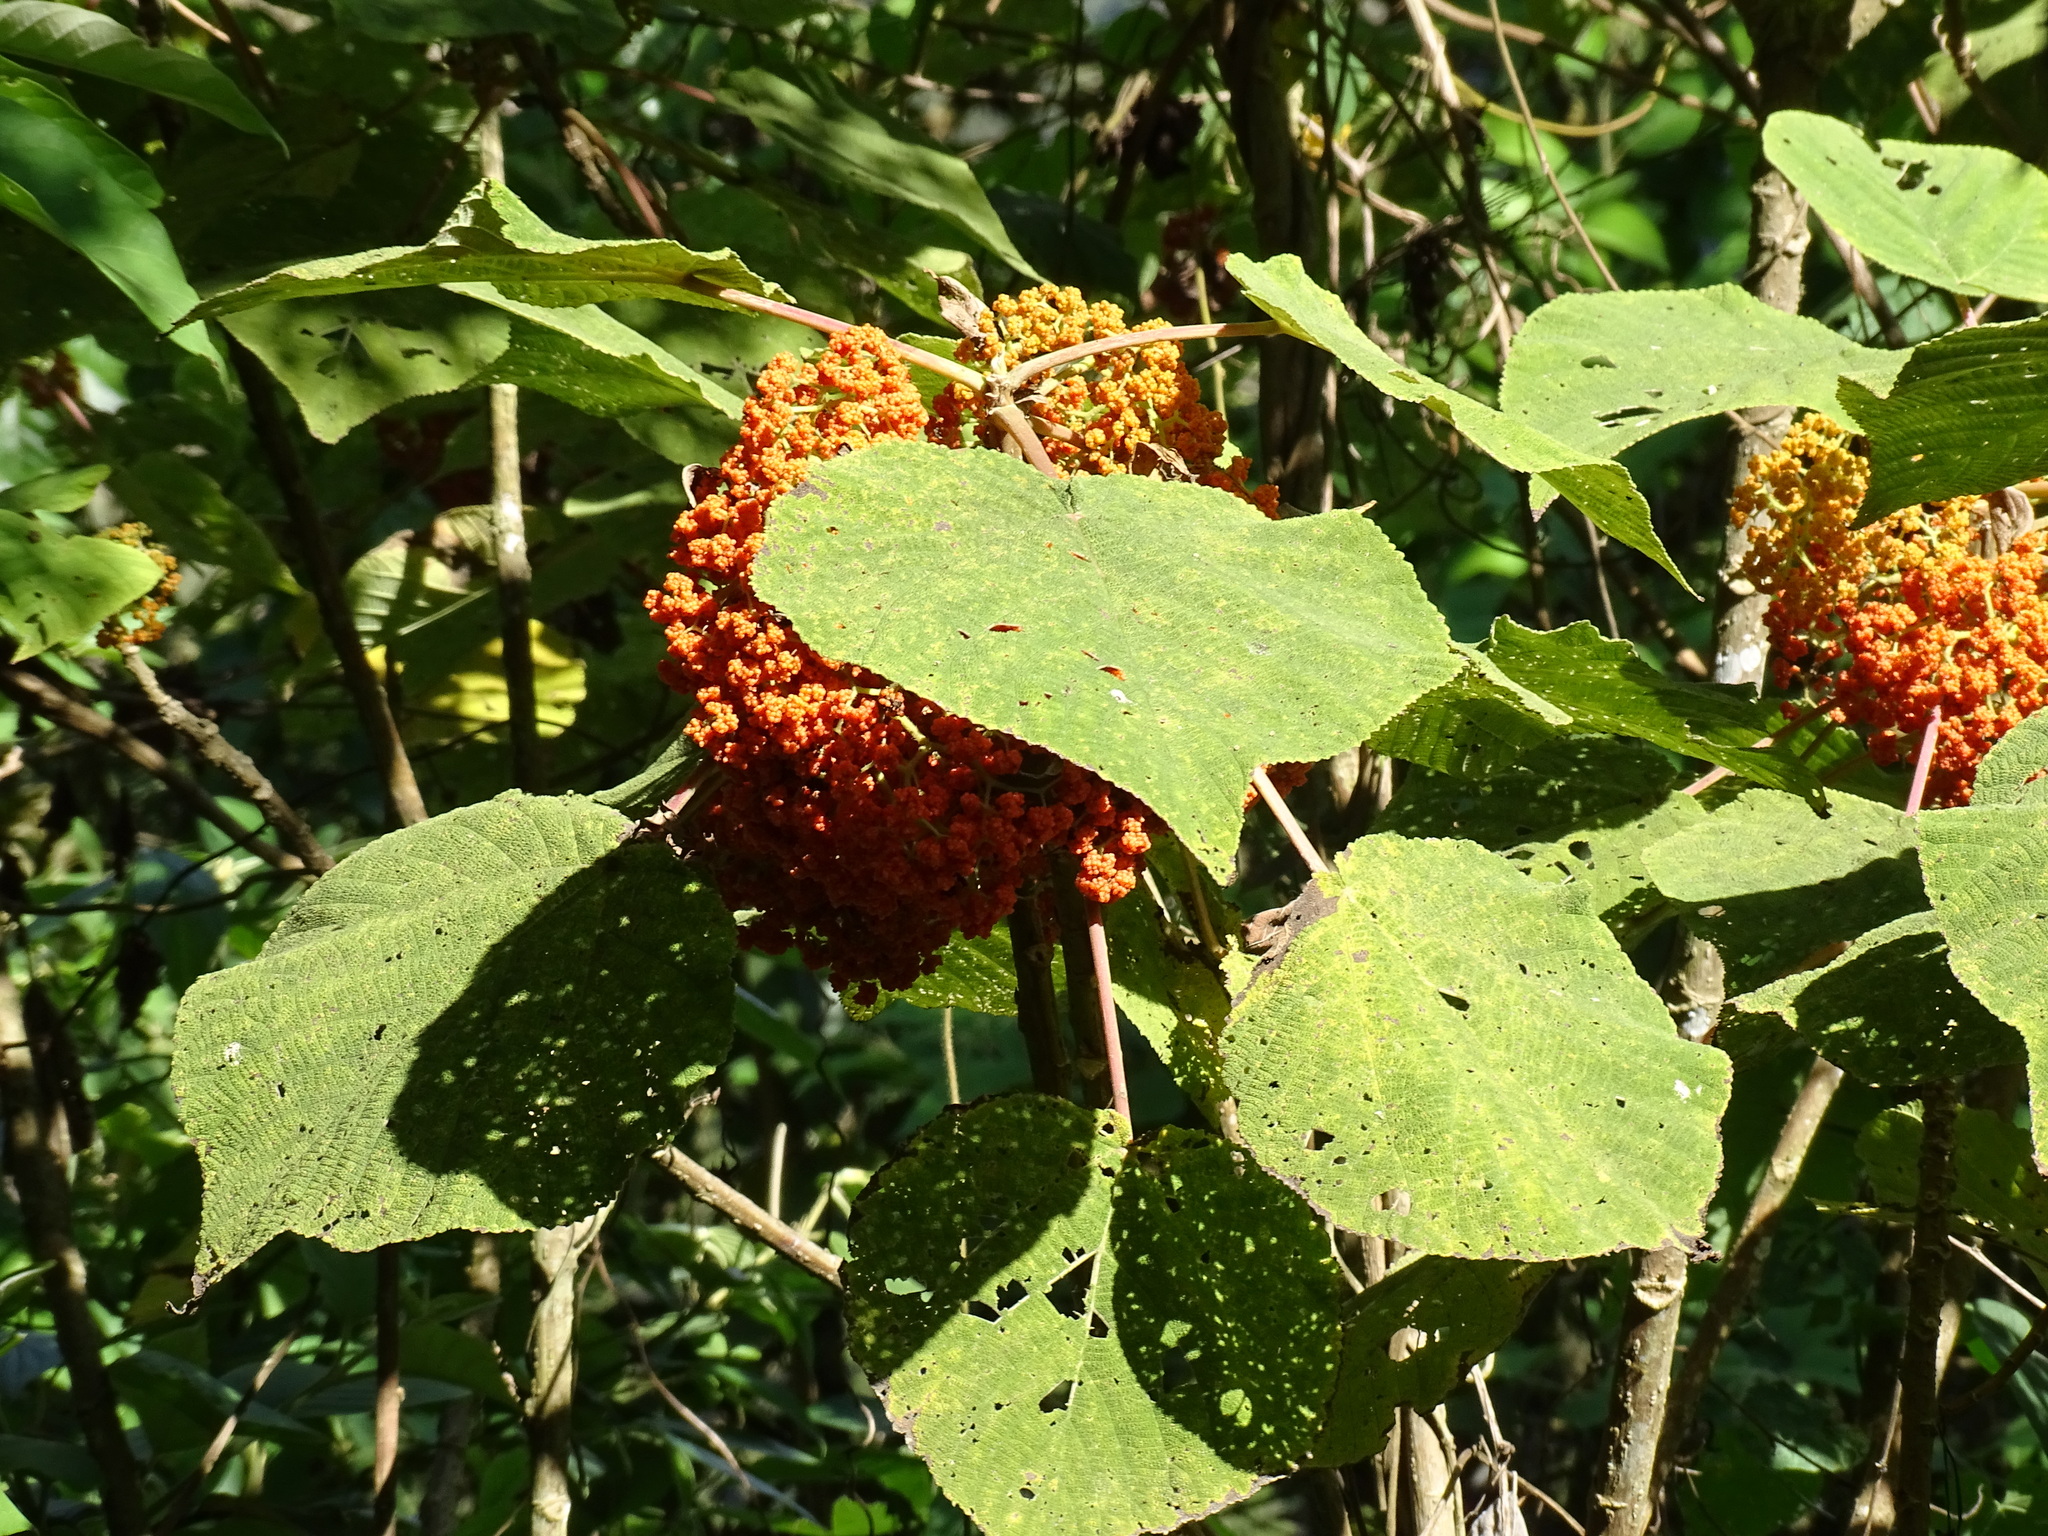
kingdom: Plantae
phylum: Tracheophyta
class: Magnoliopsida
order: Rosales
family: Urticaceae
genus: Urera
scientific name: Urera caracasana
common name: Flameberry
